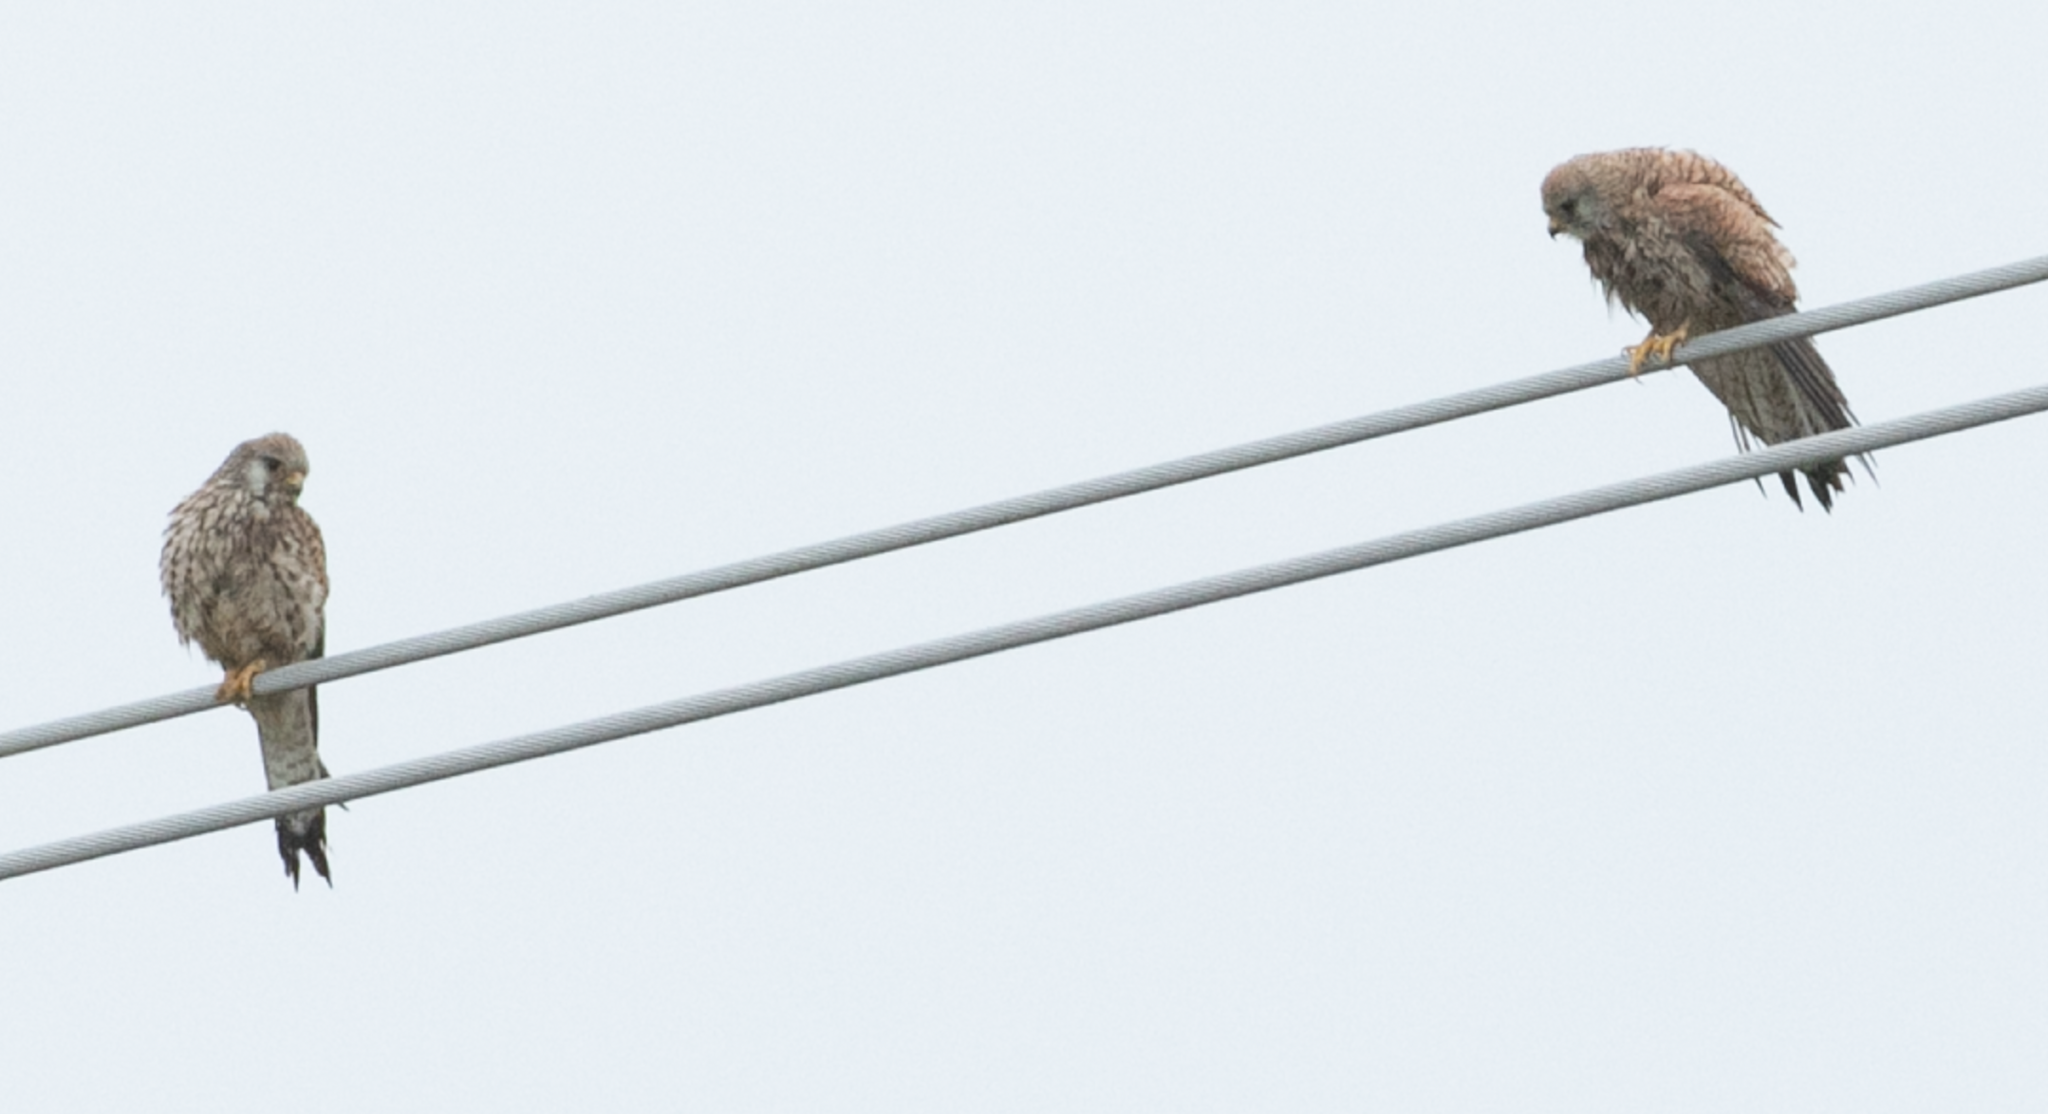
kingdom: Animalia
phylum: Chordata
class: Aves
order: Falconiformes
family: Falconidae
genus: Falco
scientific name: Falco tinnunculus
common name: Common kestrel
